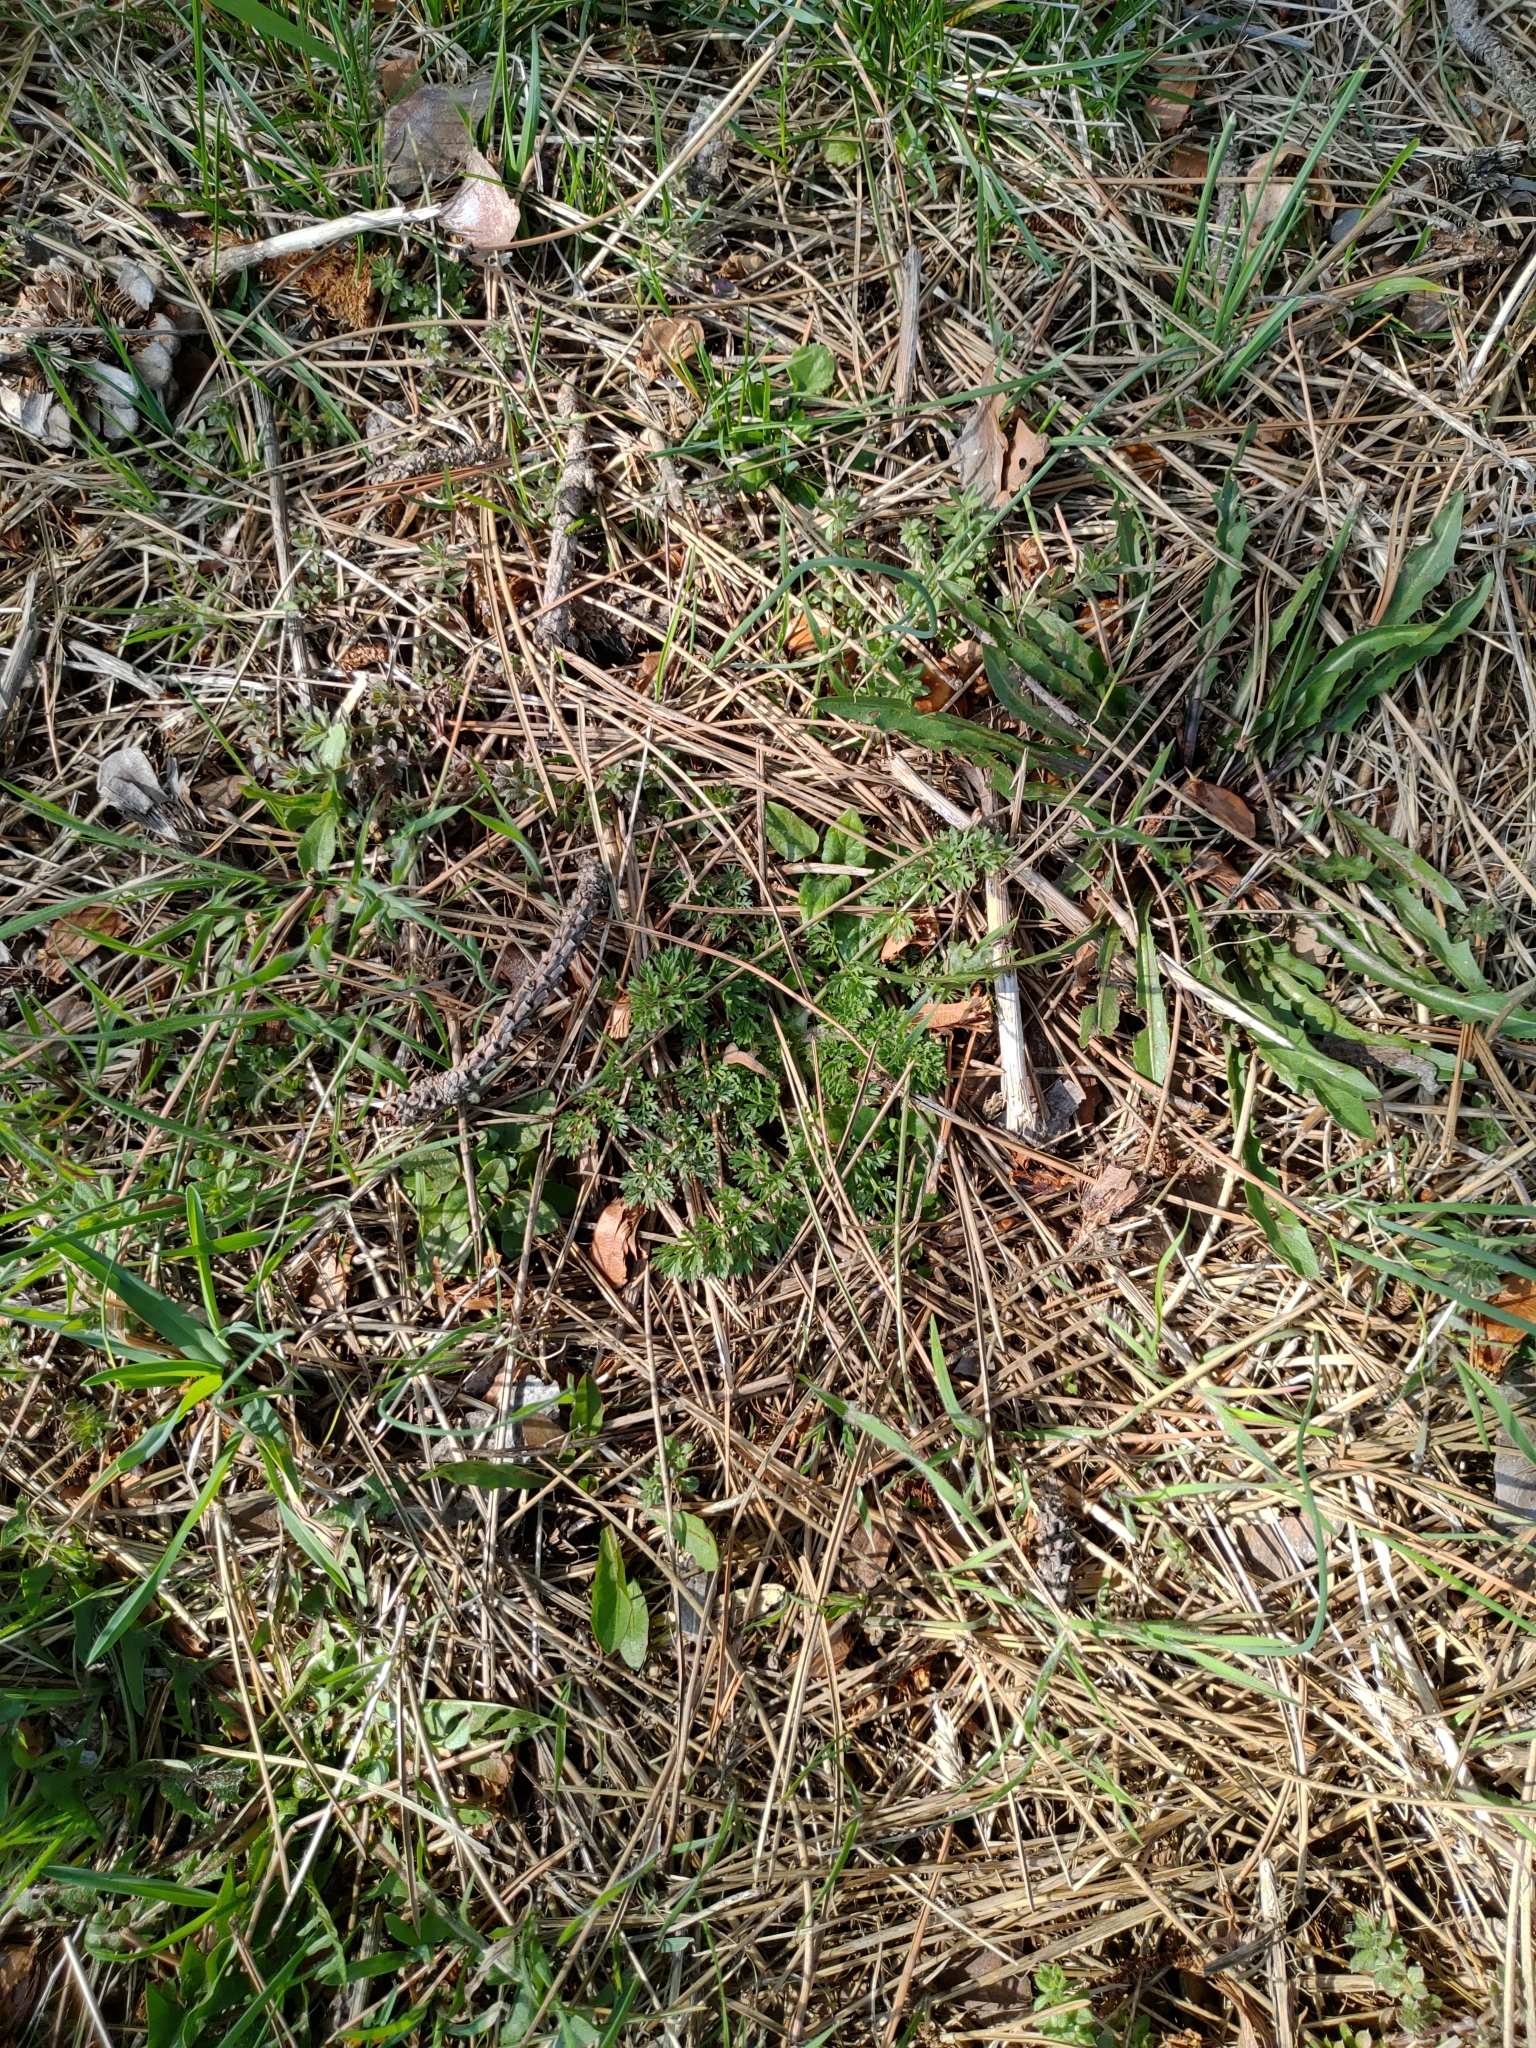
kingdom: Plantae
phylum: Tracheophyta
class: Magnoliopsida
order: Apiales
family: Apiaceae
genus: Daucus
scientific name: Daucus carota
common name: Wild carrot
